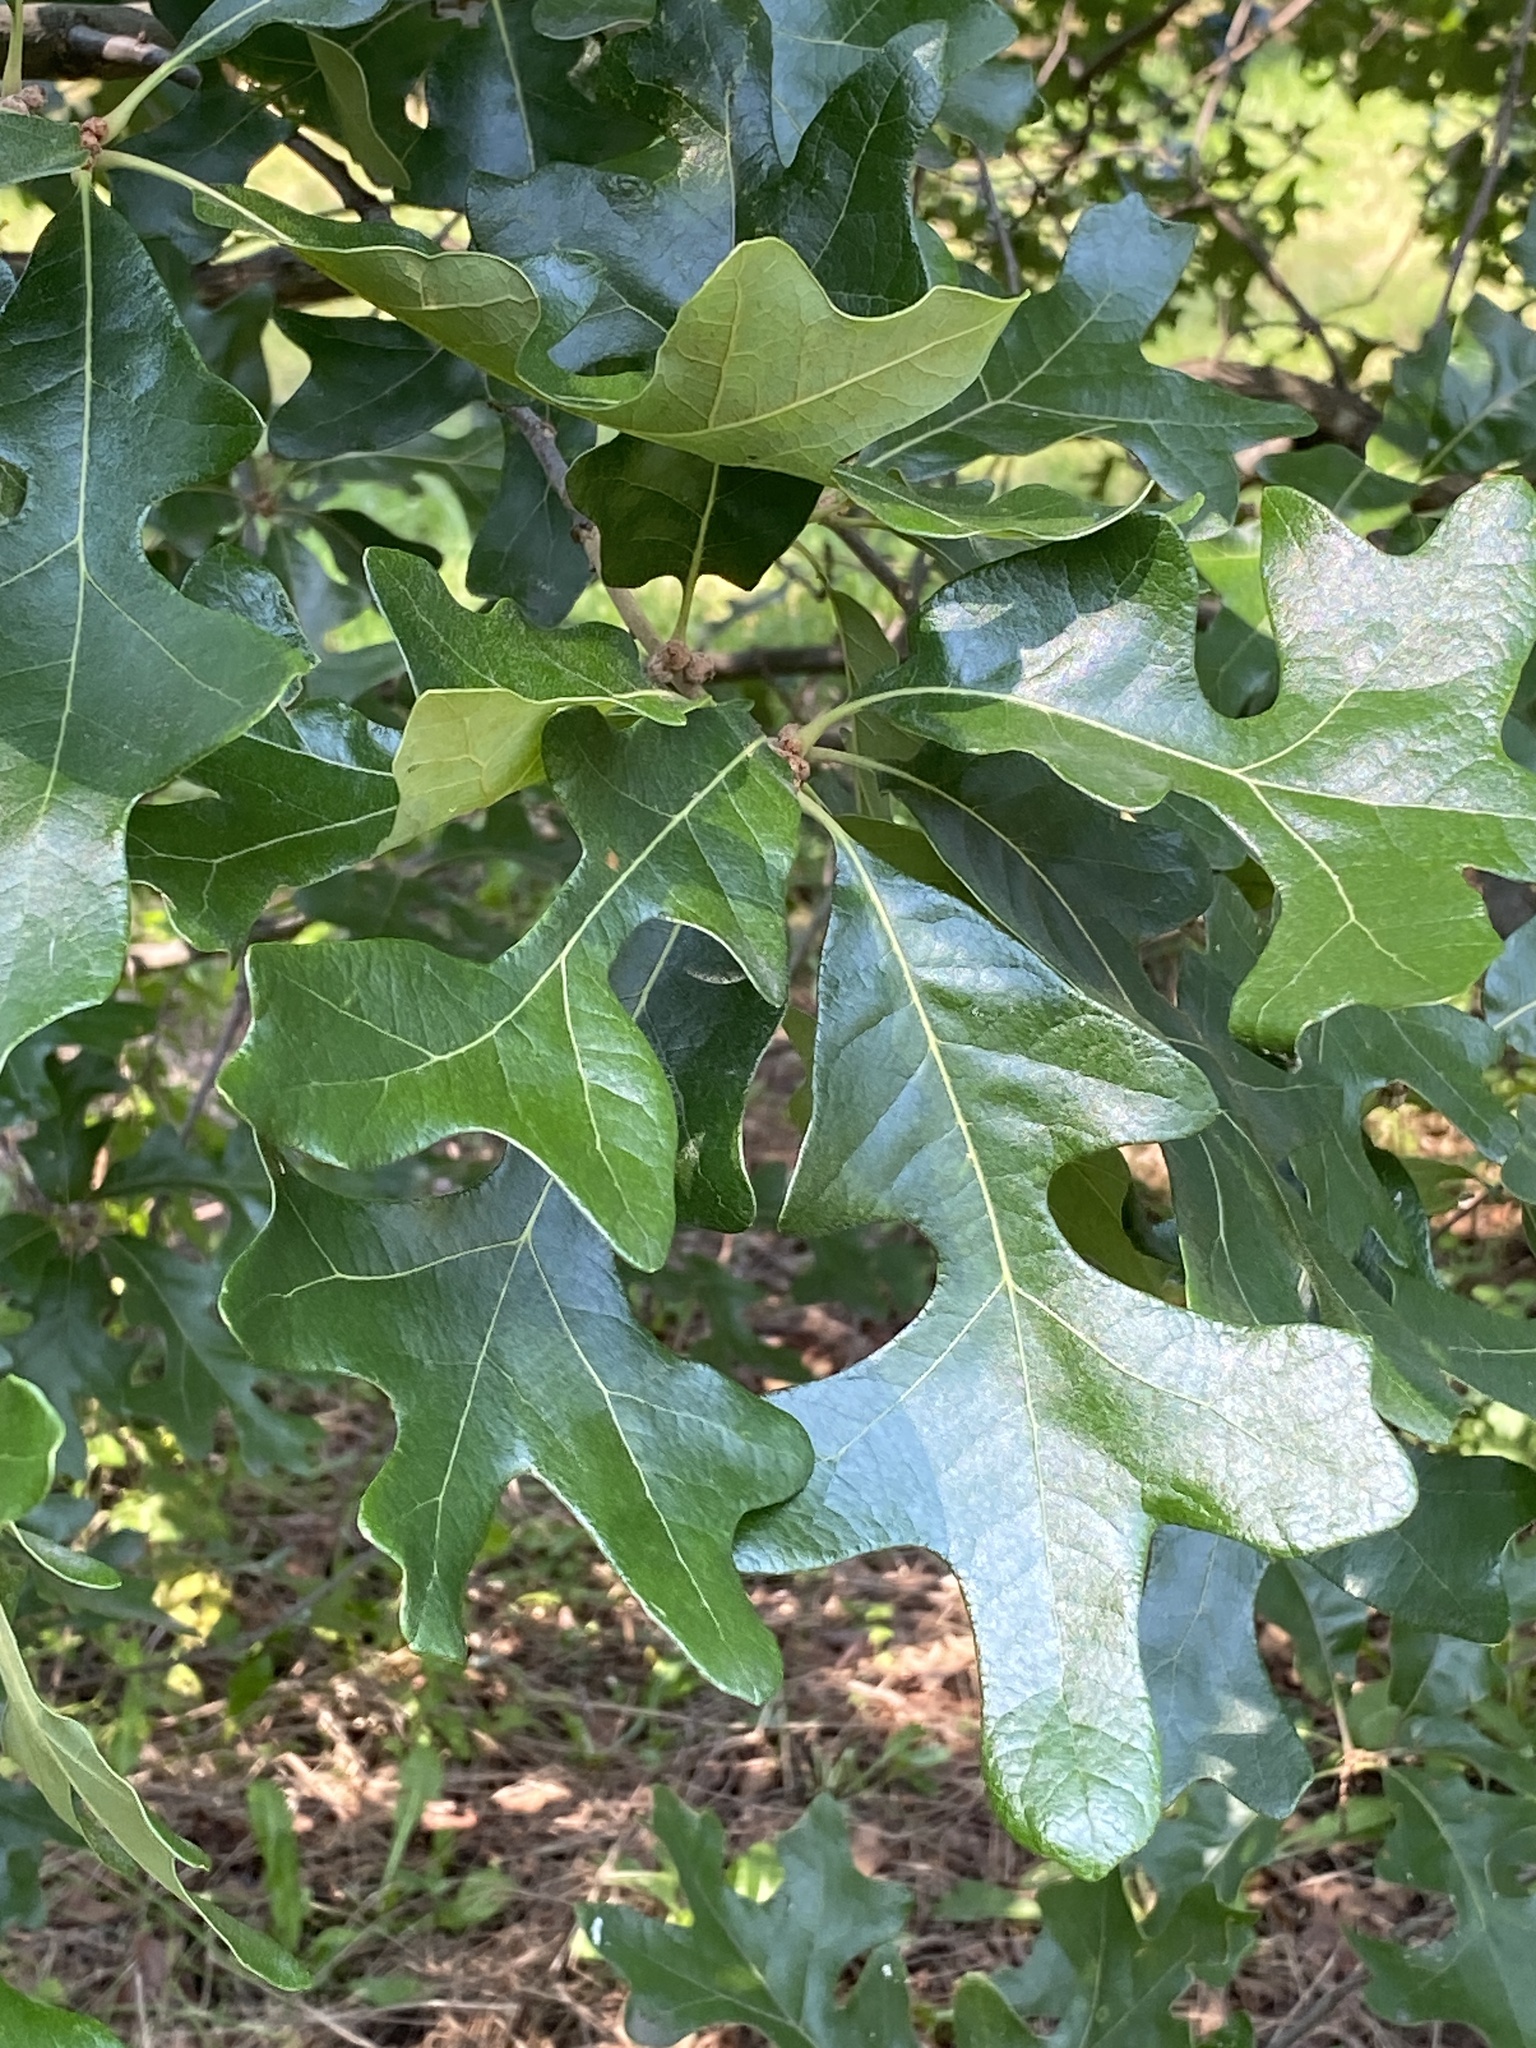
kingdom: Plantae
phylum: Tracheophyta
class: Magnoliopsida
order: Fagales
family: Fagaceae
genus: Quercus
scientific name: Quercus stellata
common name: Post oak
